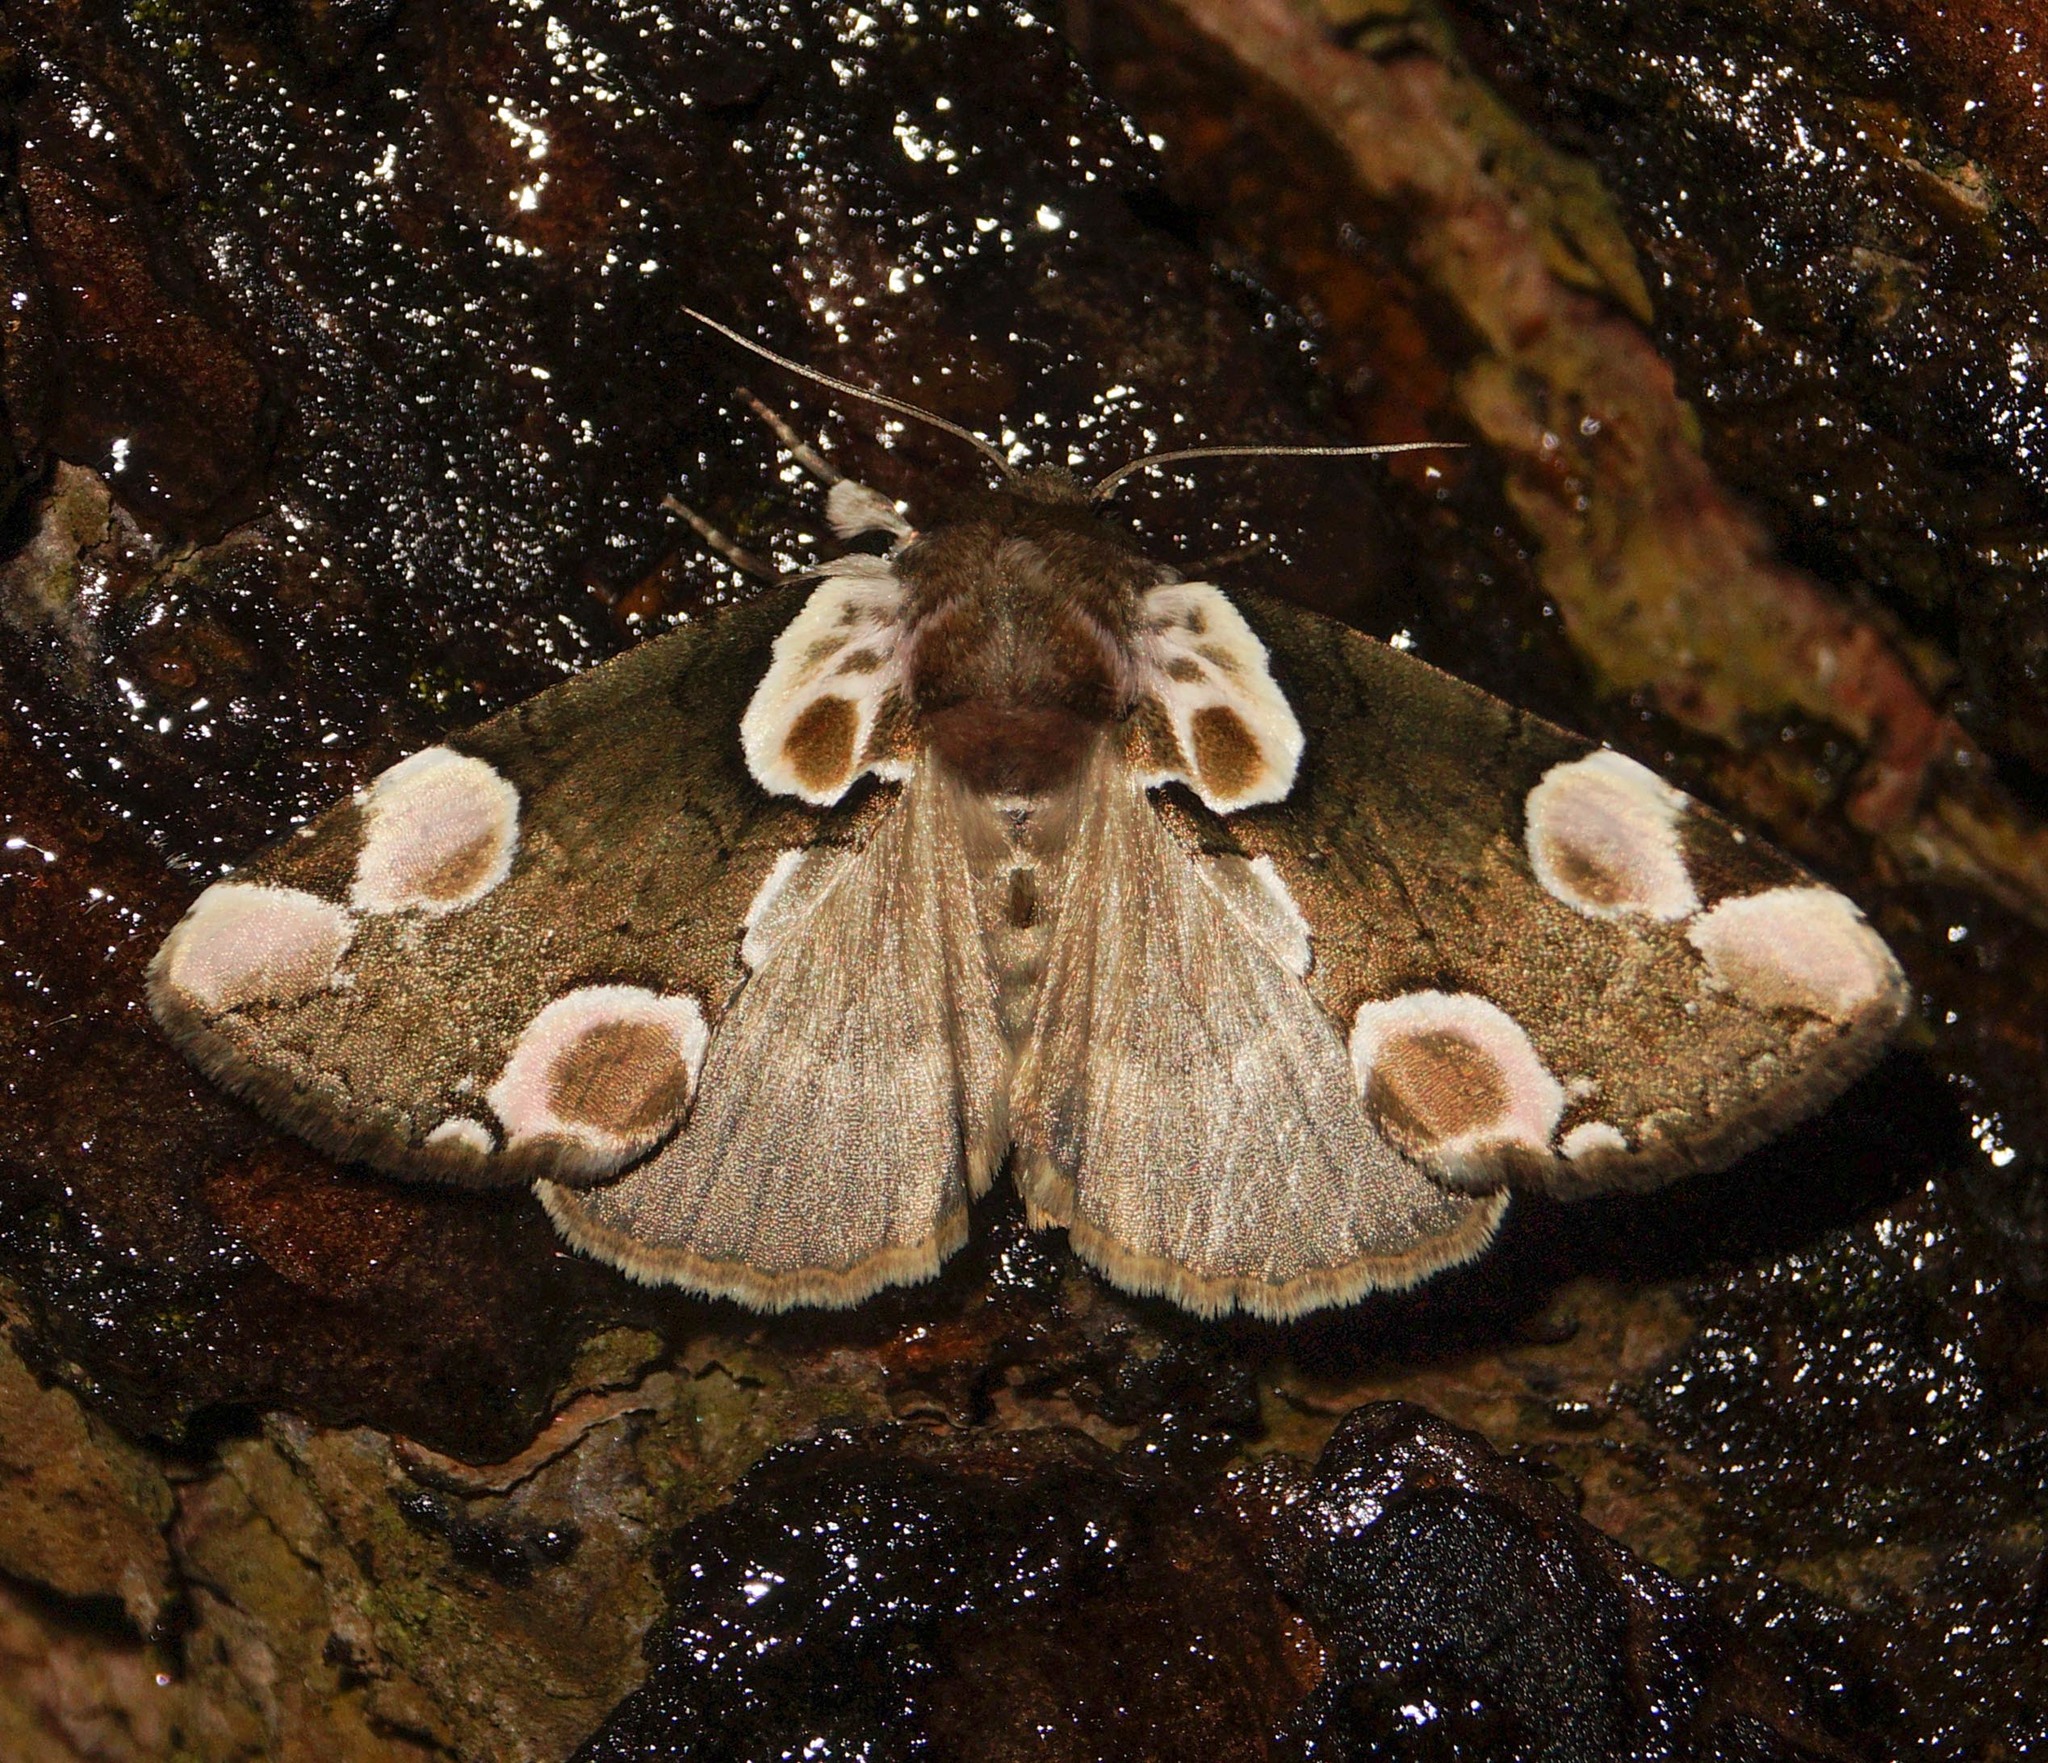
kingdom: Animalia
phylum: Arthropoda
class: Insecta
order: Lepidoptera
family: Drepanidae
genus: Thyatira
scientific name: Thyatira batis
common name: Peach blossom
